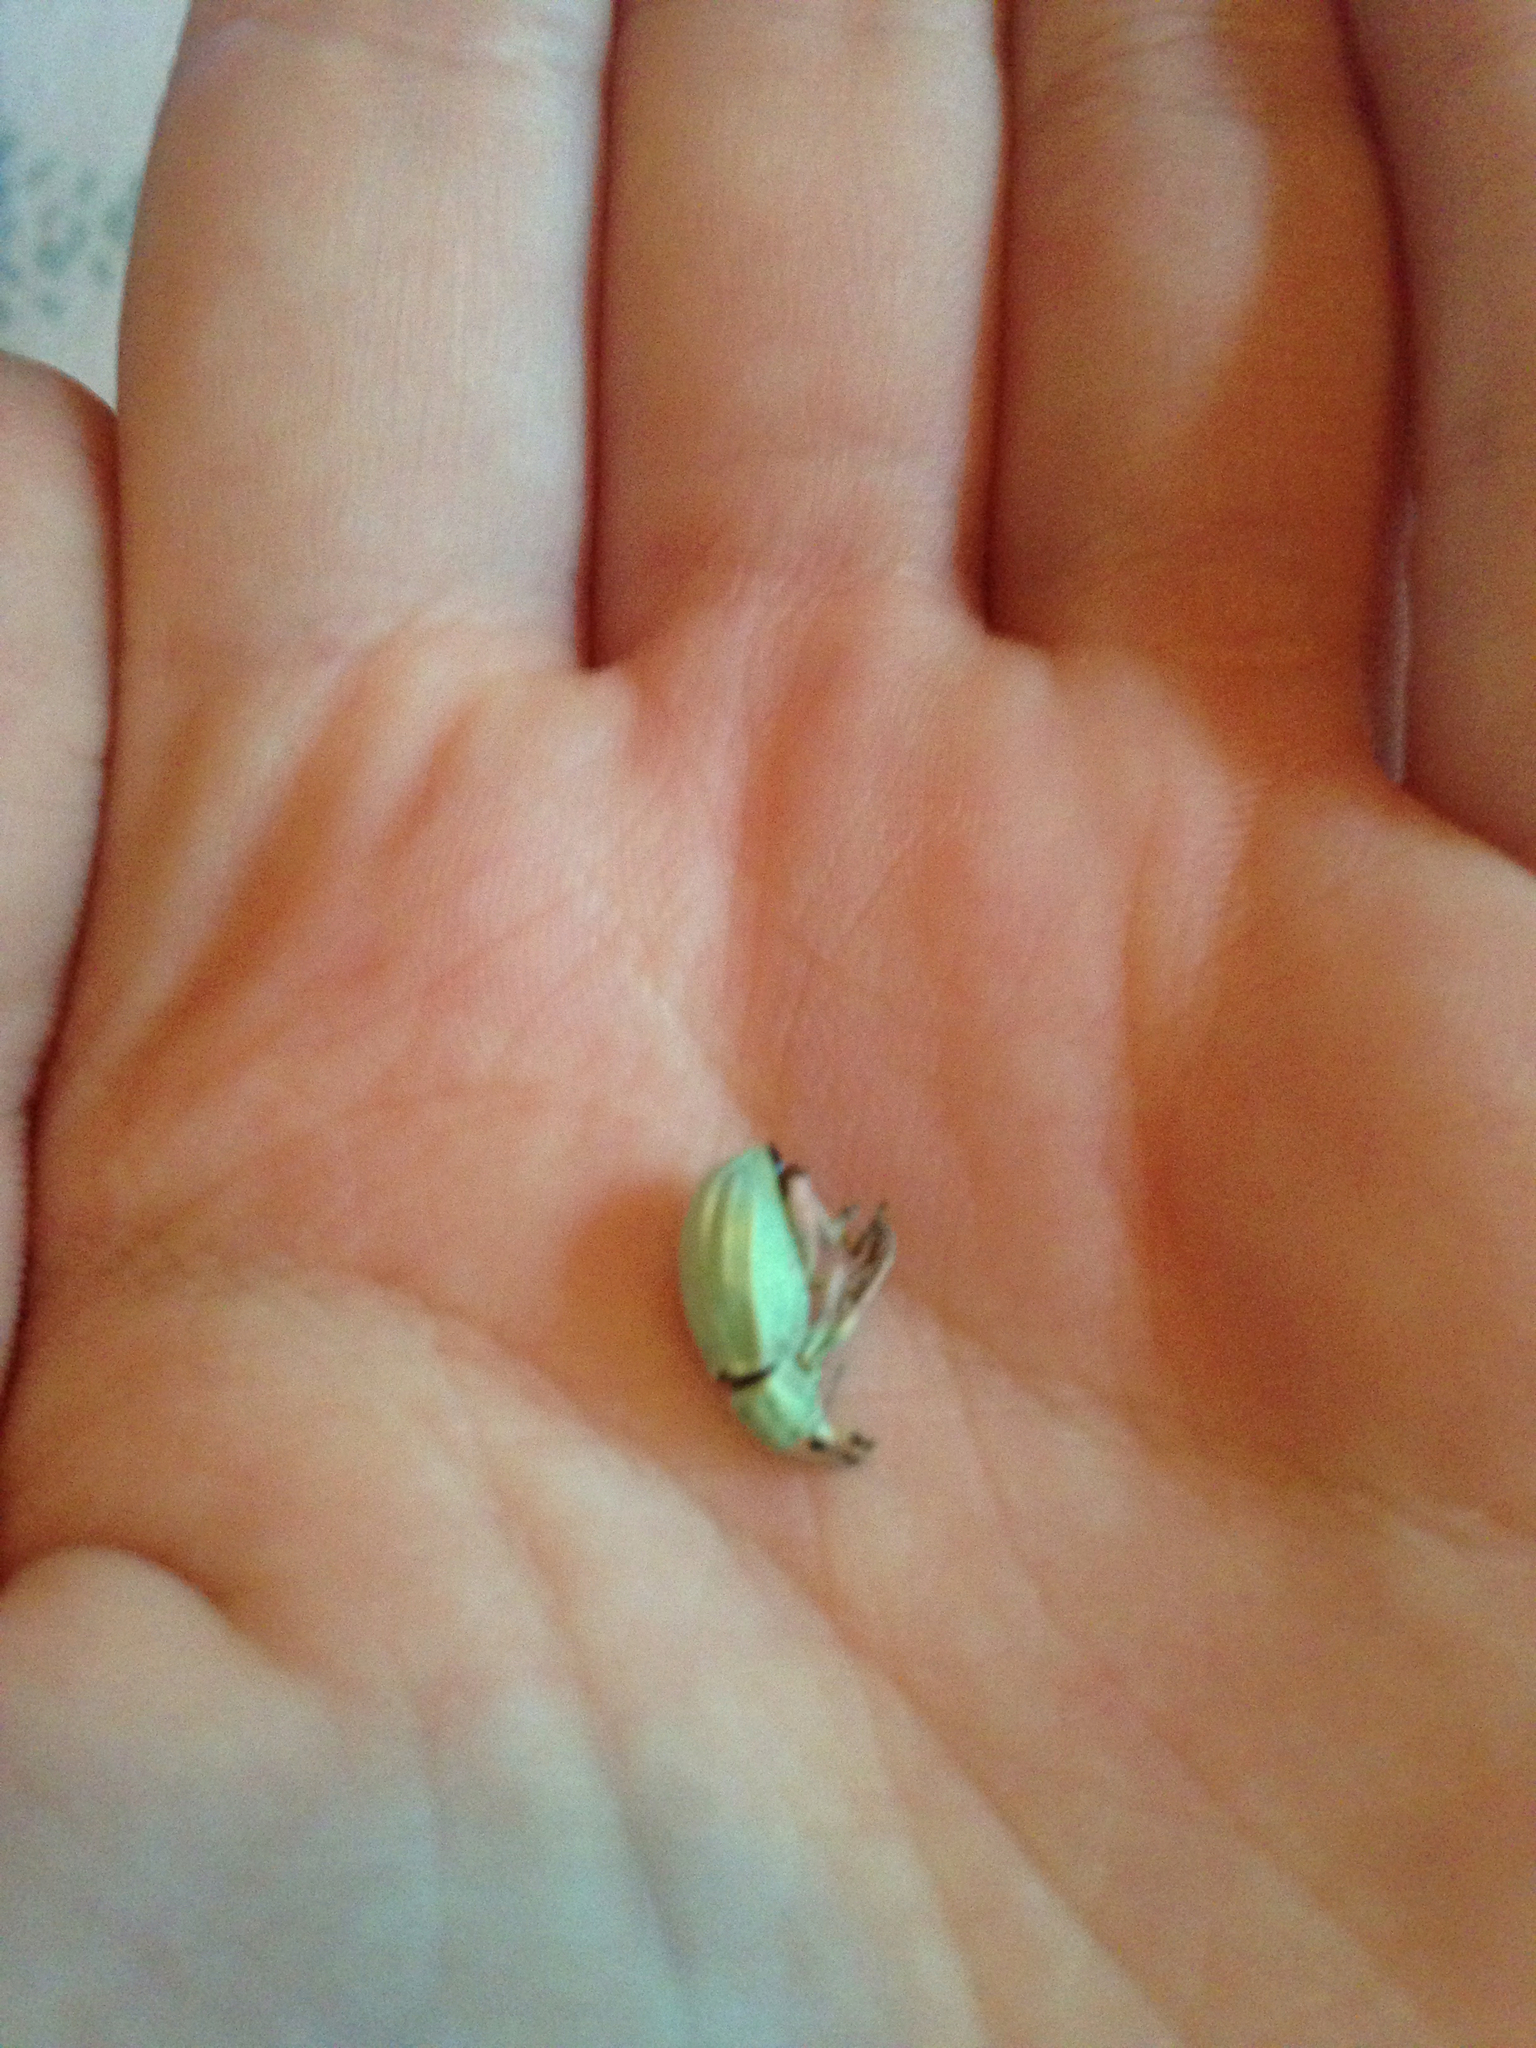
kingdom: Animalia
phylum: Arthropoda
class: Insecta
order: Coleoptera
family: Curculionidae
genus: Compsus
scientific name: Compsus auricephalus
